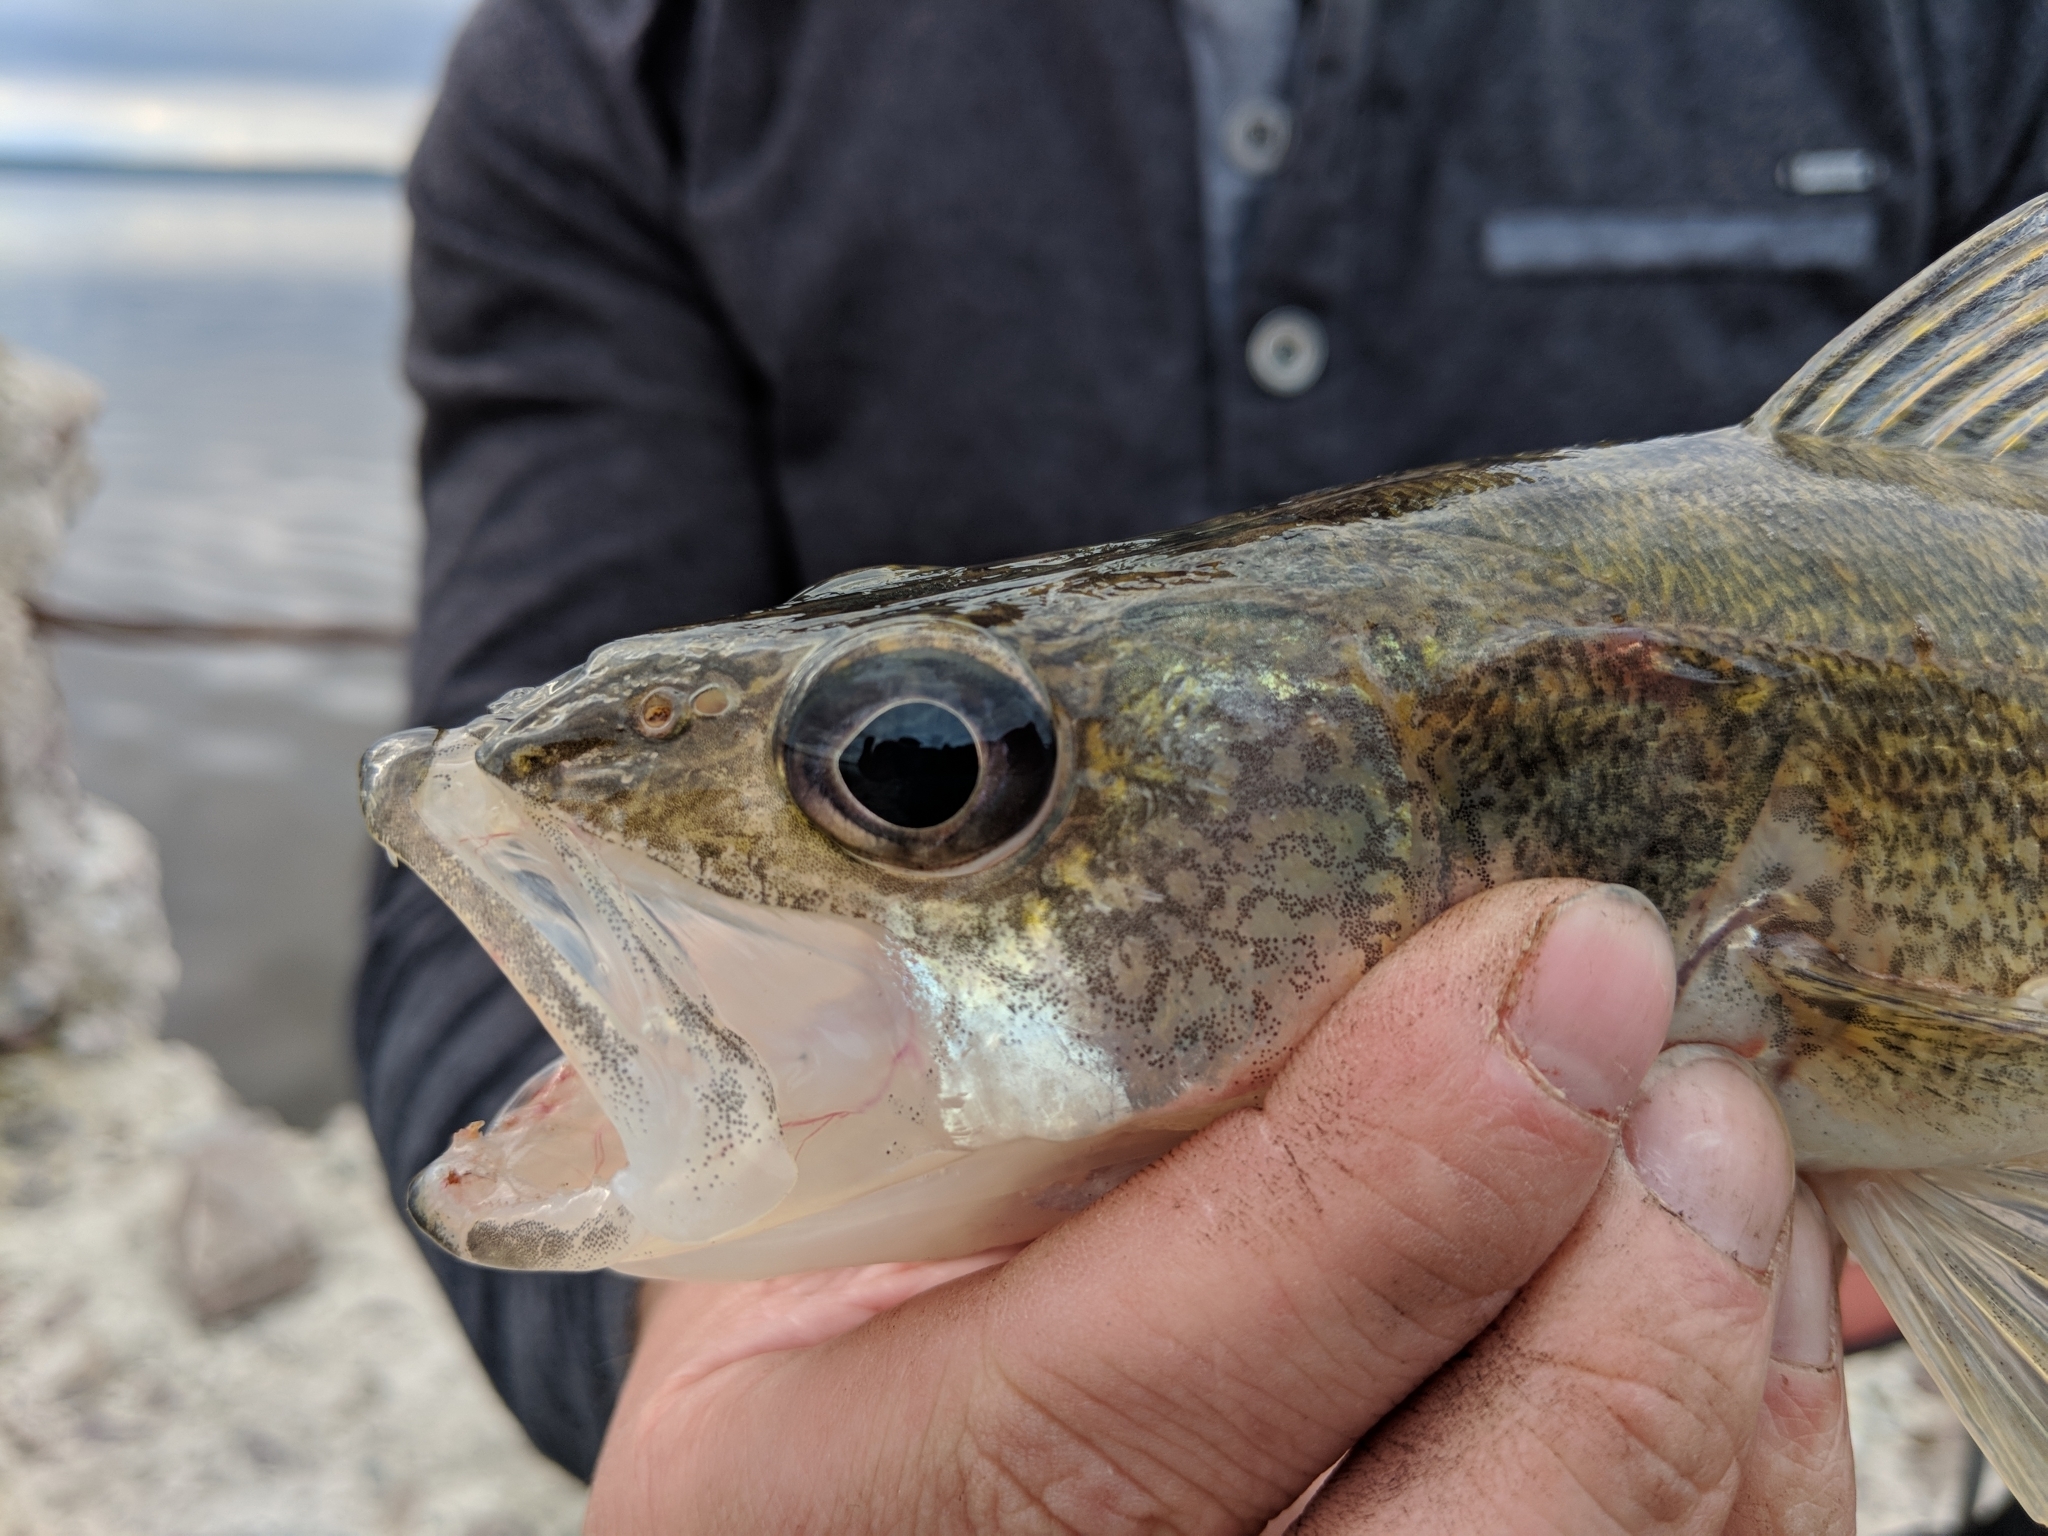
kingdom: Animalia
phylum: Chordata
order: Perciformes
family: Percidae
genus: Sander
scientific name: Sander vitreus
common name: Walleye
